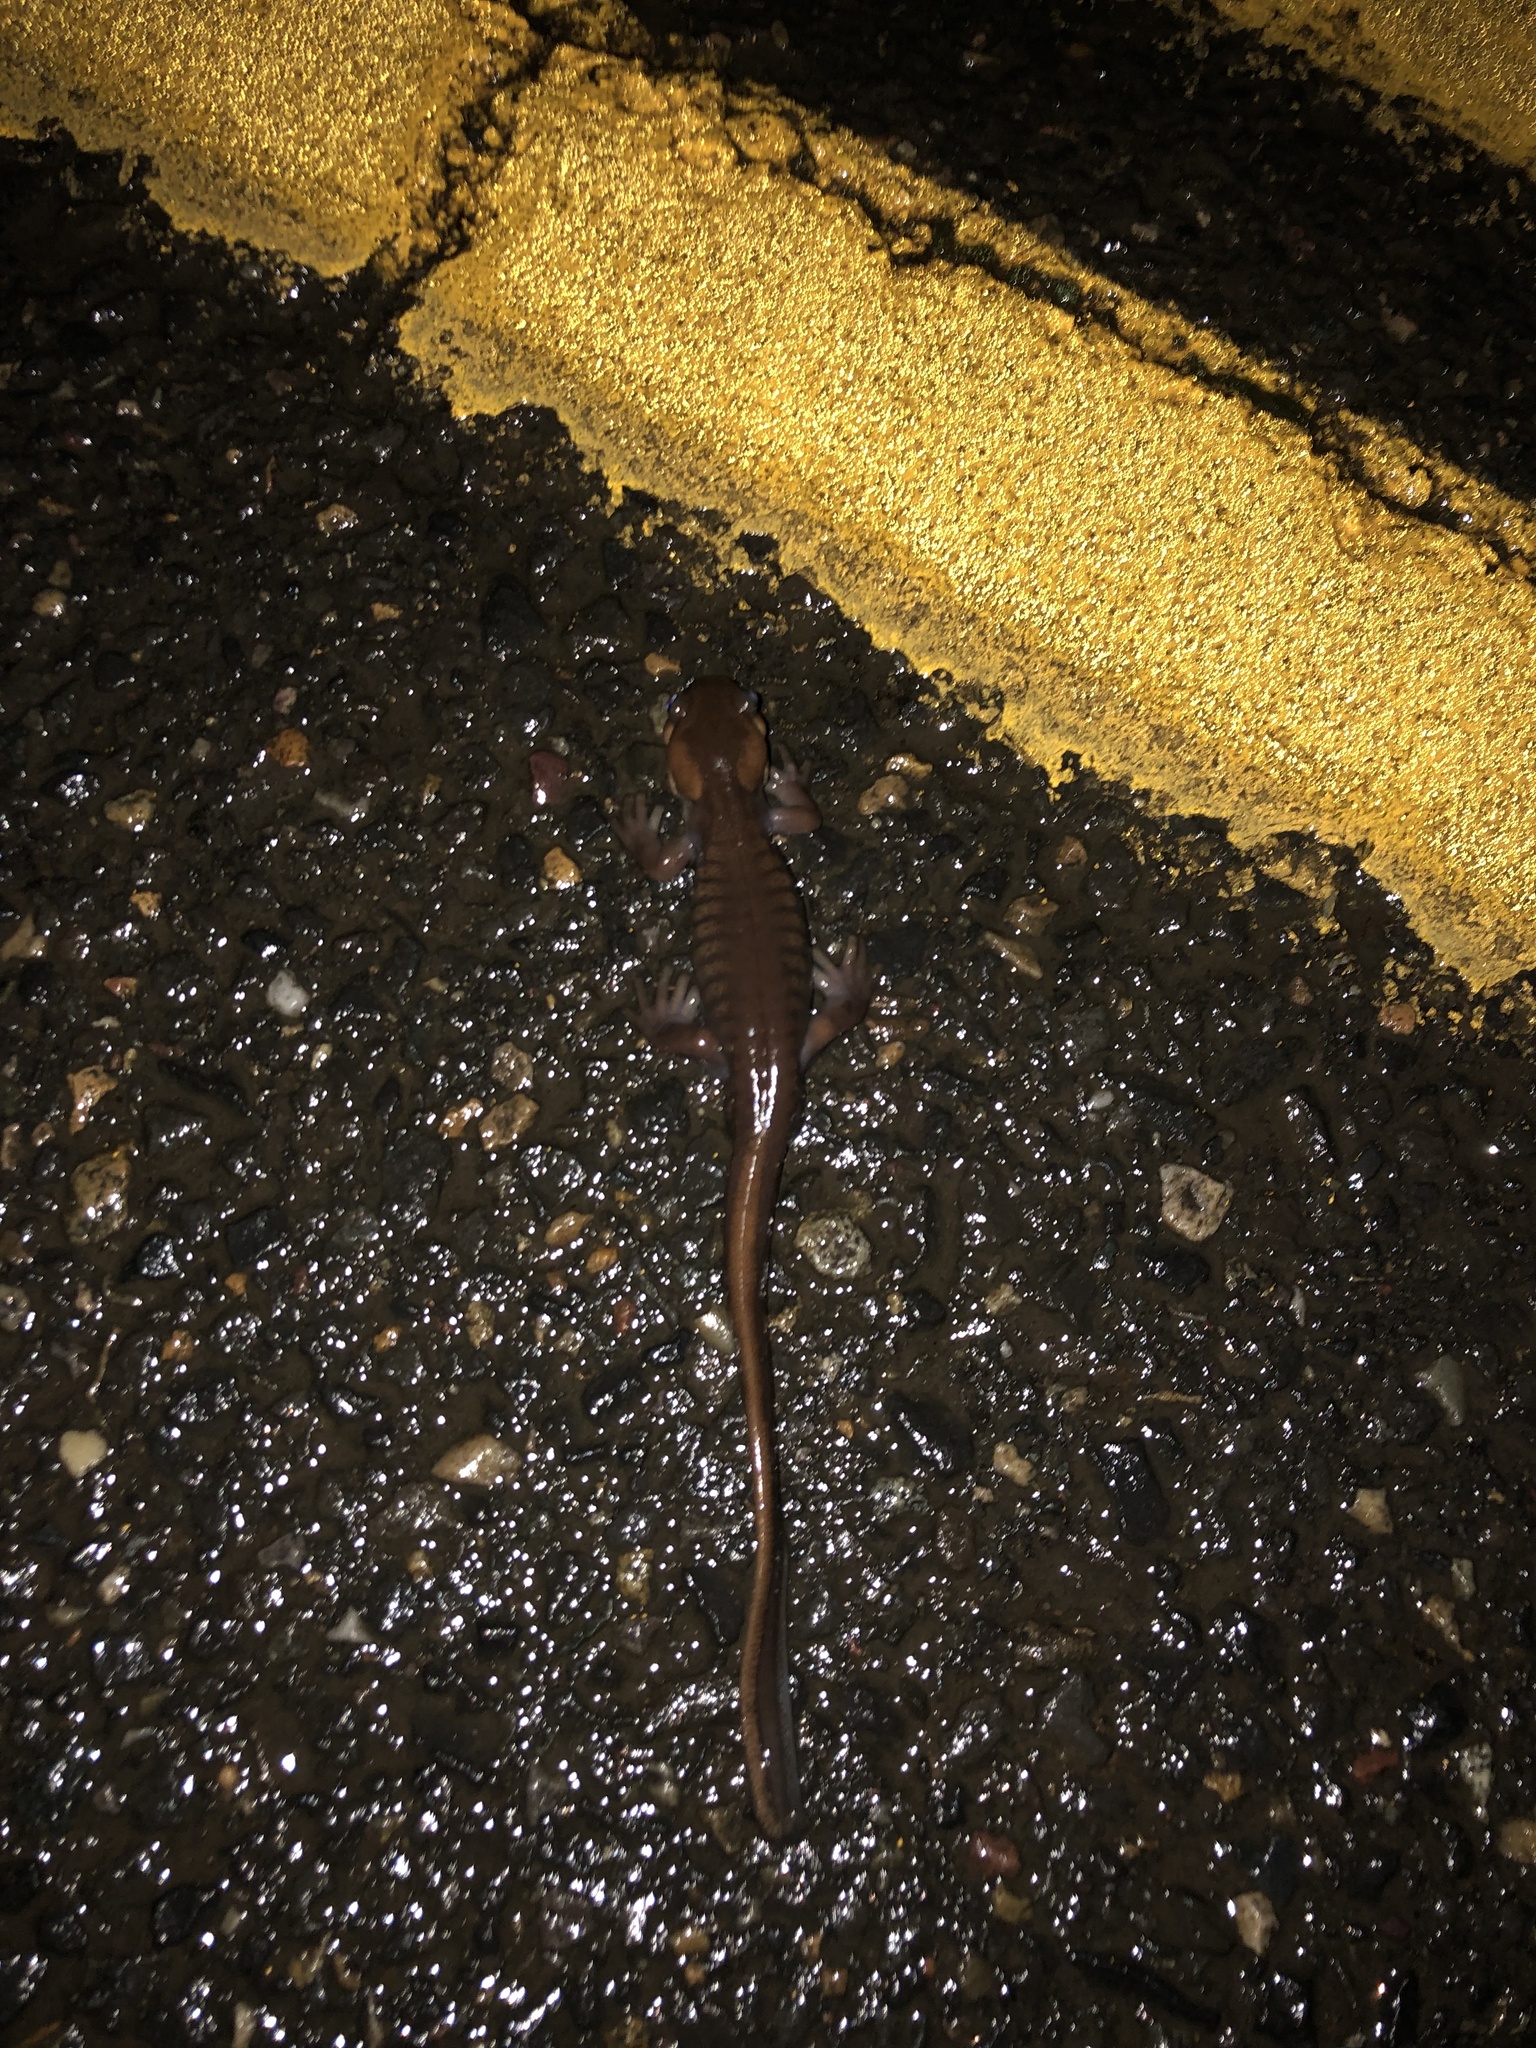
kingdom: Animalia
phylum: Chordata
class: Amphibia
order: Caudata
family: Ambystomatidae
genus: Ambystoma
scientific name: Ambystoma gracile
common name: Northwestern salamander
